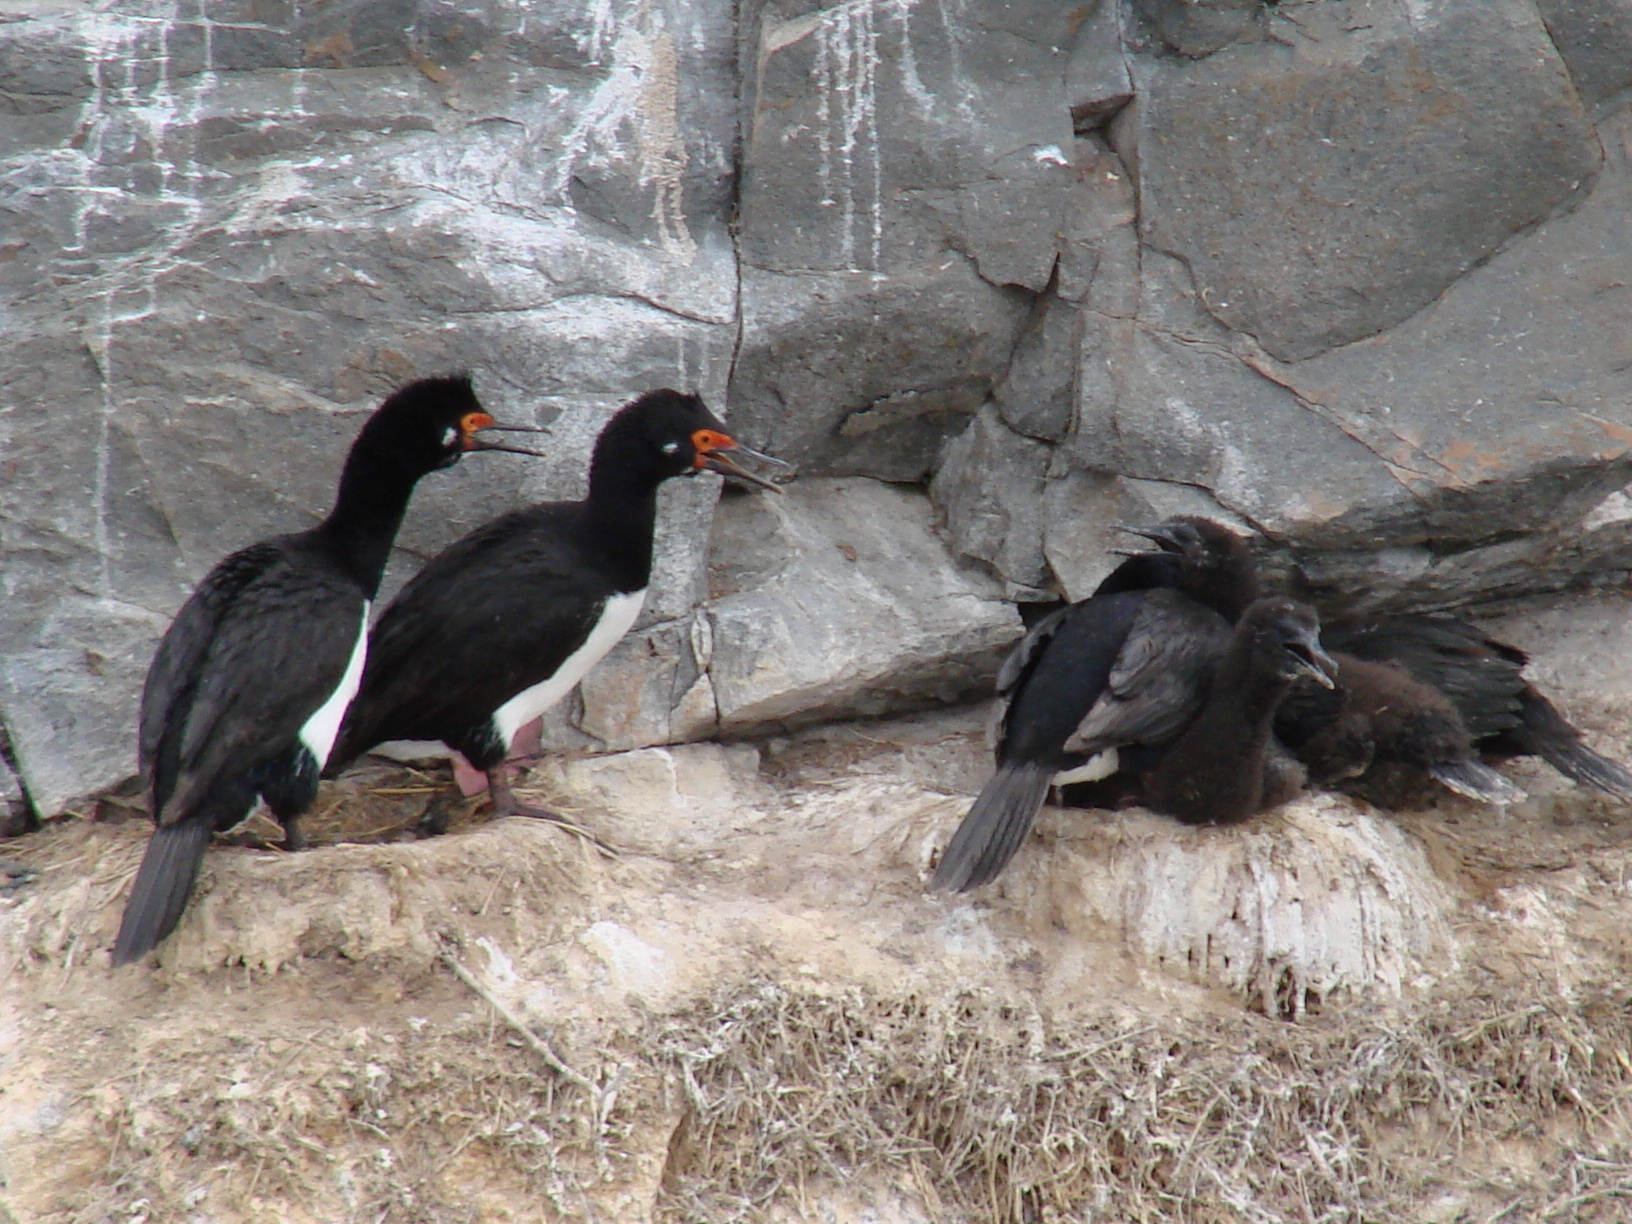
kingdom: Animalia
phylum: Chordata
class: Aves
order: Suliformes
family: Phalacrocoracidae
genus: Phalacrocorax
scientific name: Phalacrocorax magellanicus
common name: Rock shag
